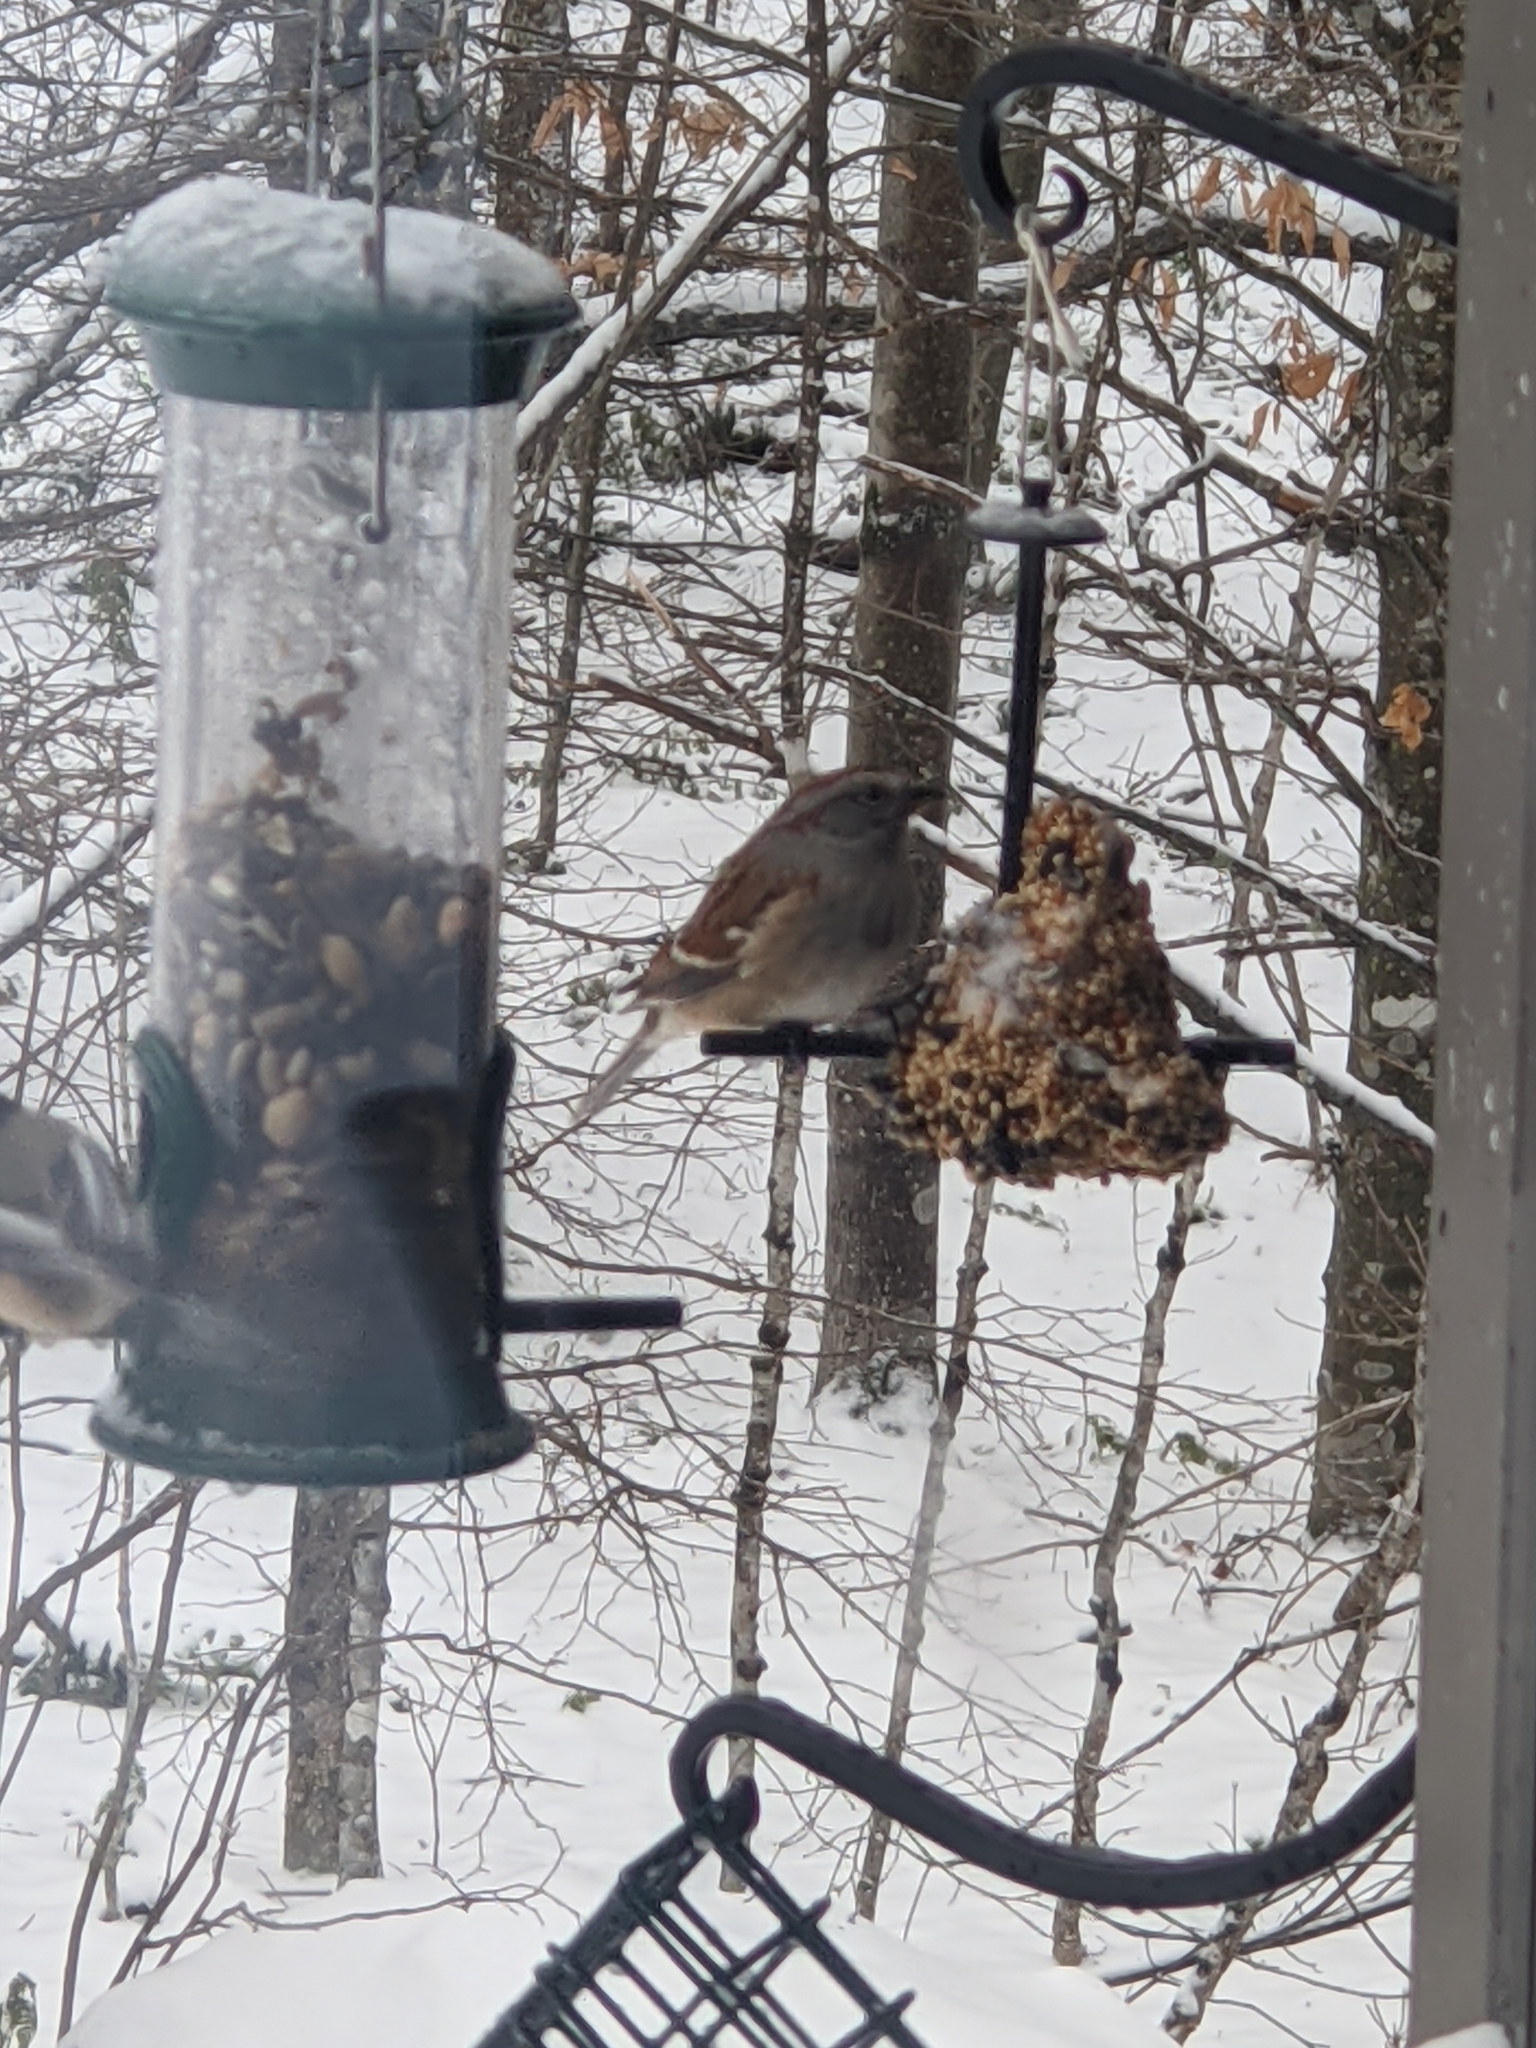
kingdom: Animalia
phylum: Chordata
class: Aves
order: Passeriformes
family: Passerellidae
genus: Spizelloides
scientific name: Spizelloides arborea
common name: American tree sparrow
